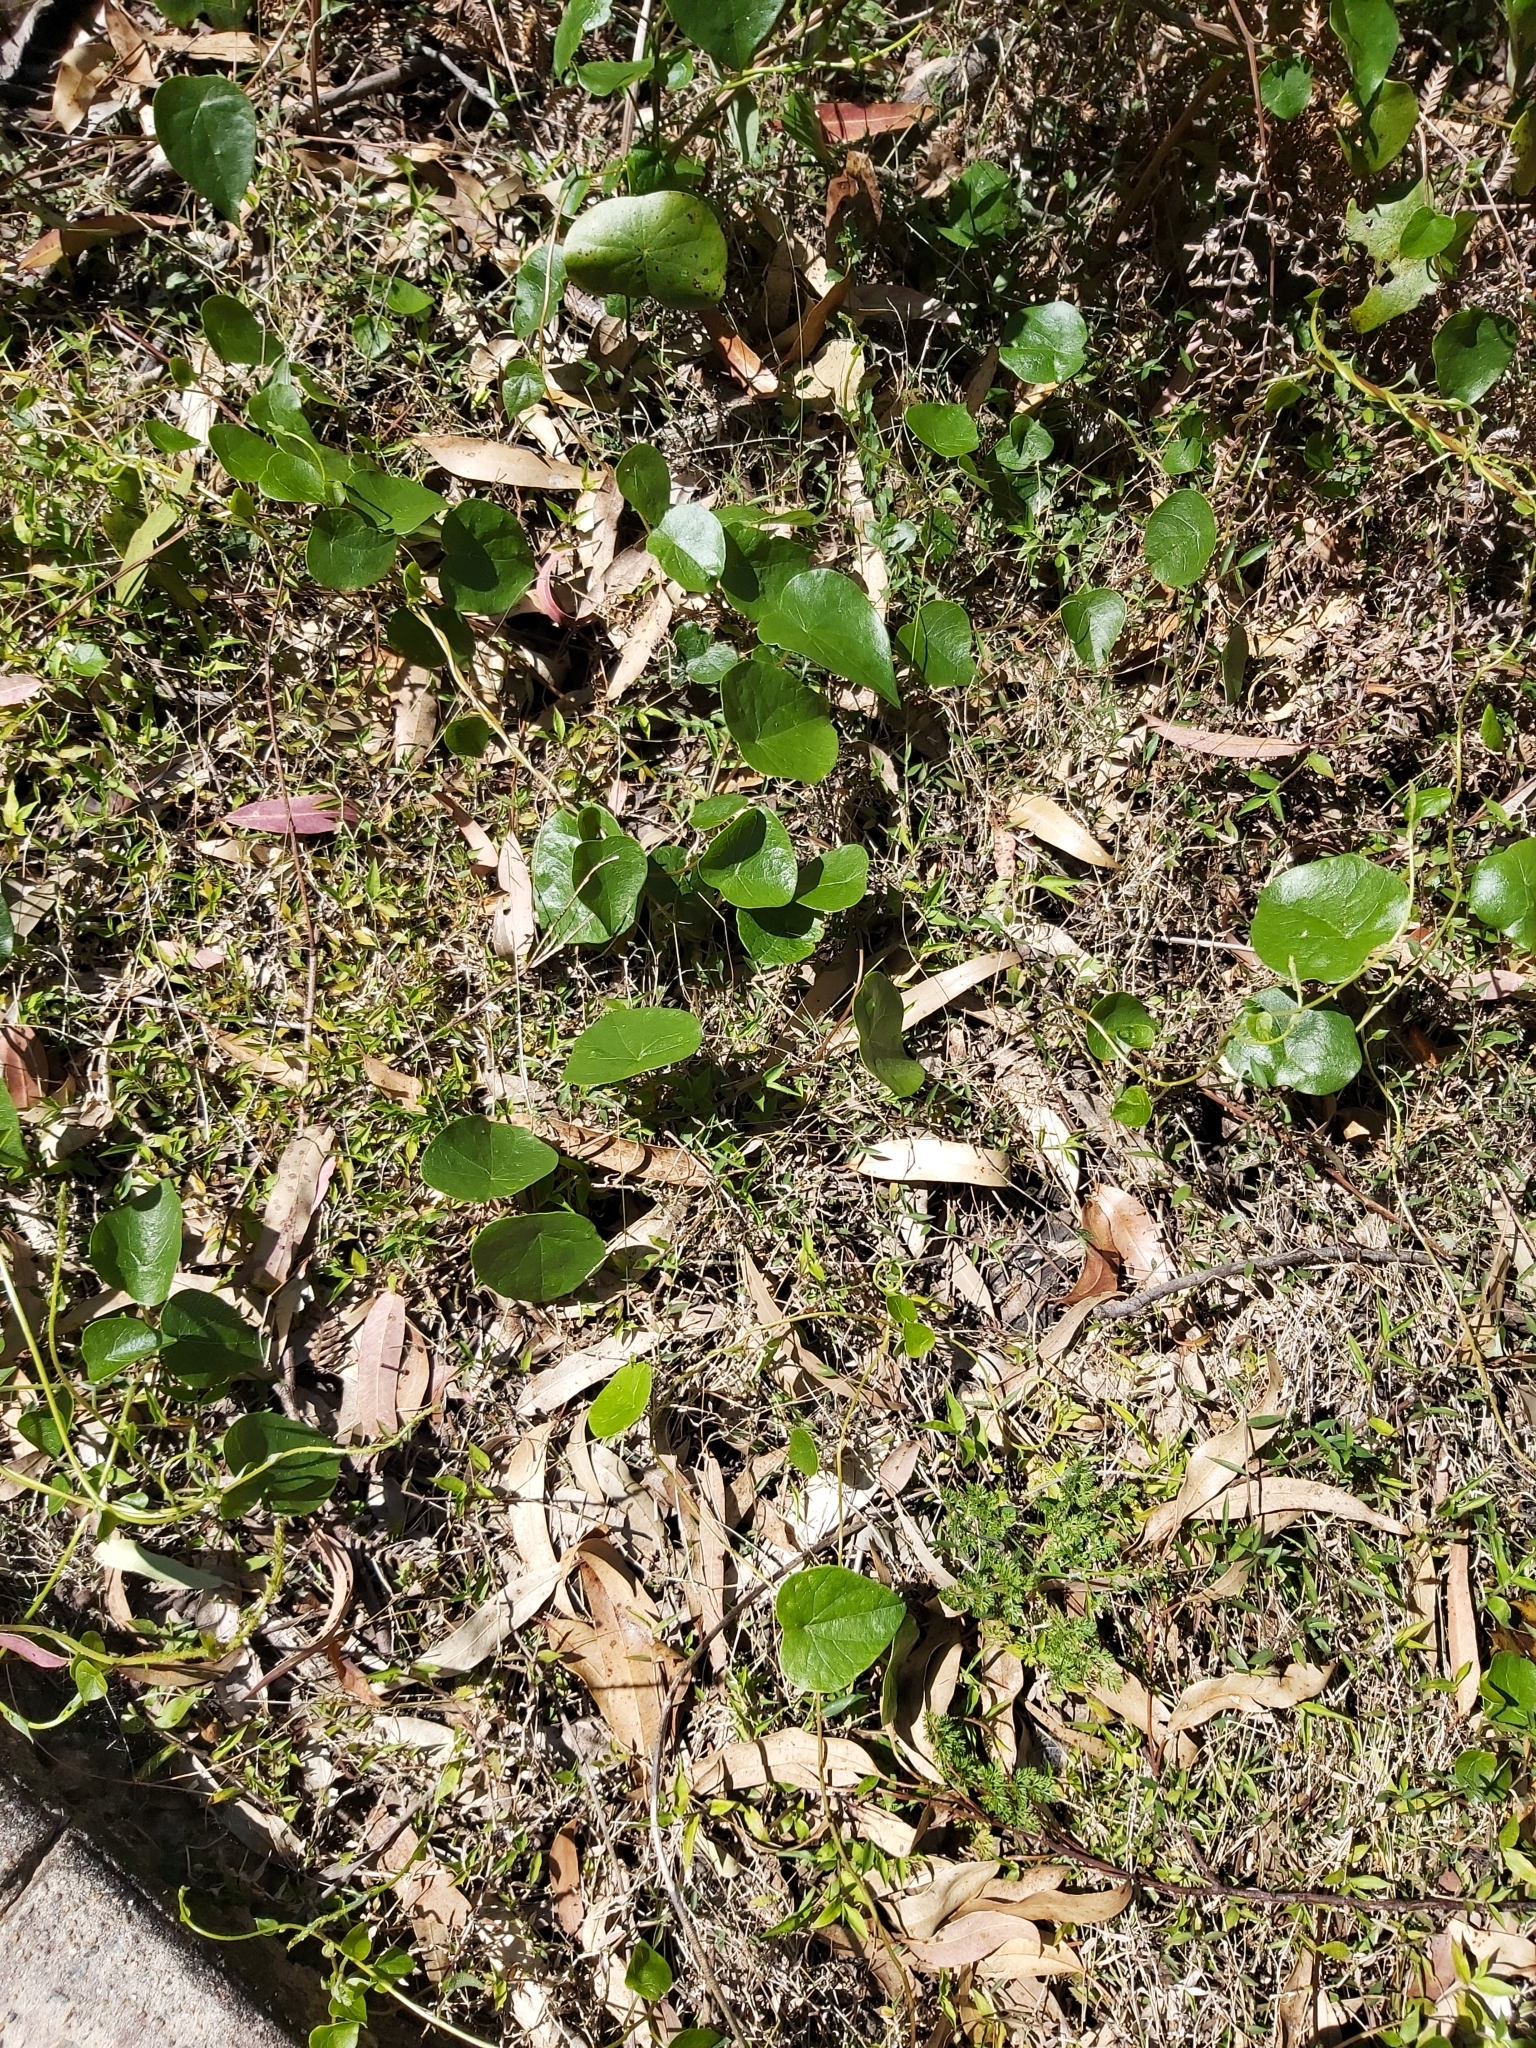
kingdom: Plantae
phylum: Tracheophyta
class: Magnoliopsida
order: Ranunculales
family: Menispermaceae
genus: Stephania
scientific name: Stephania japonica
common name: Snake vine
